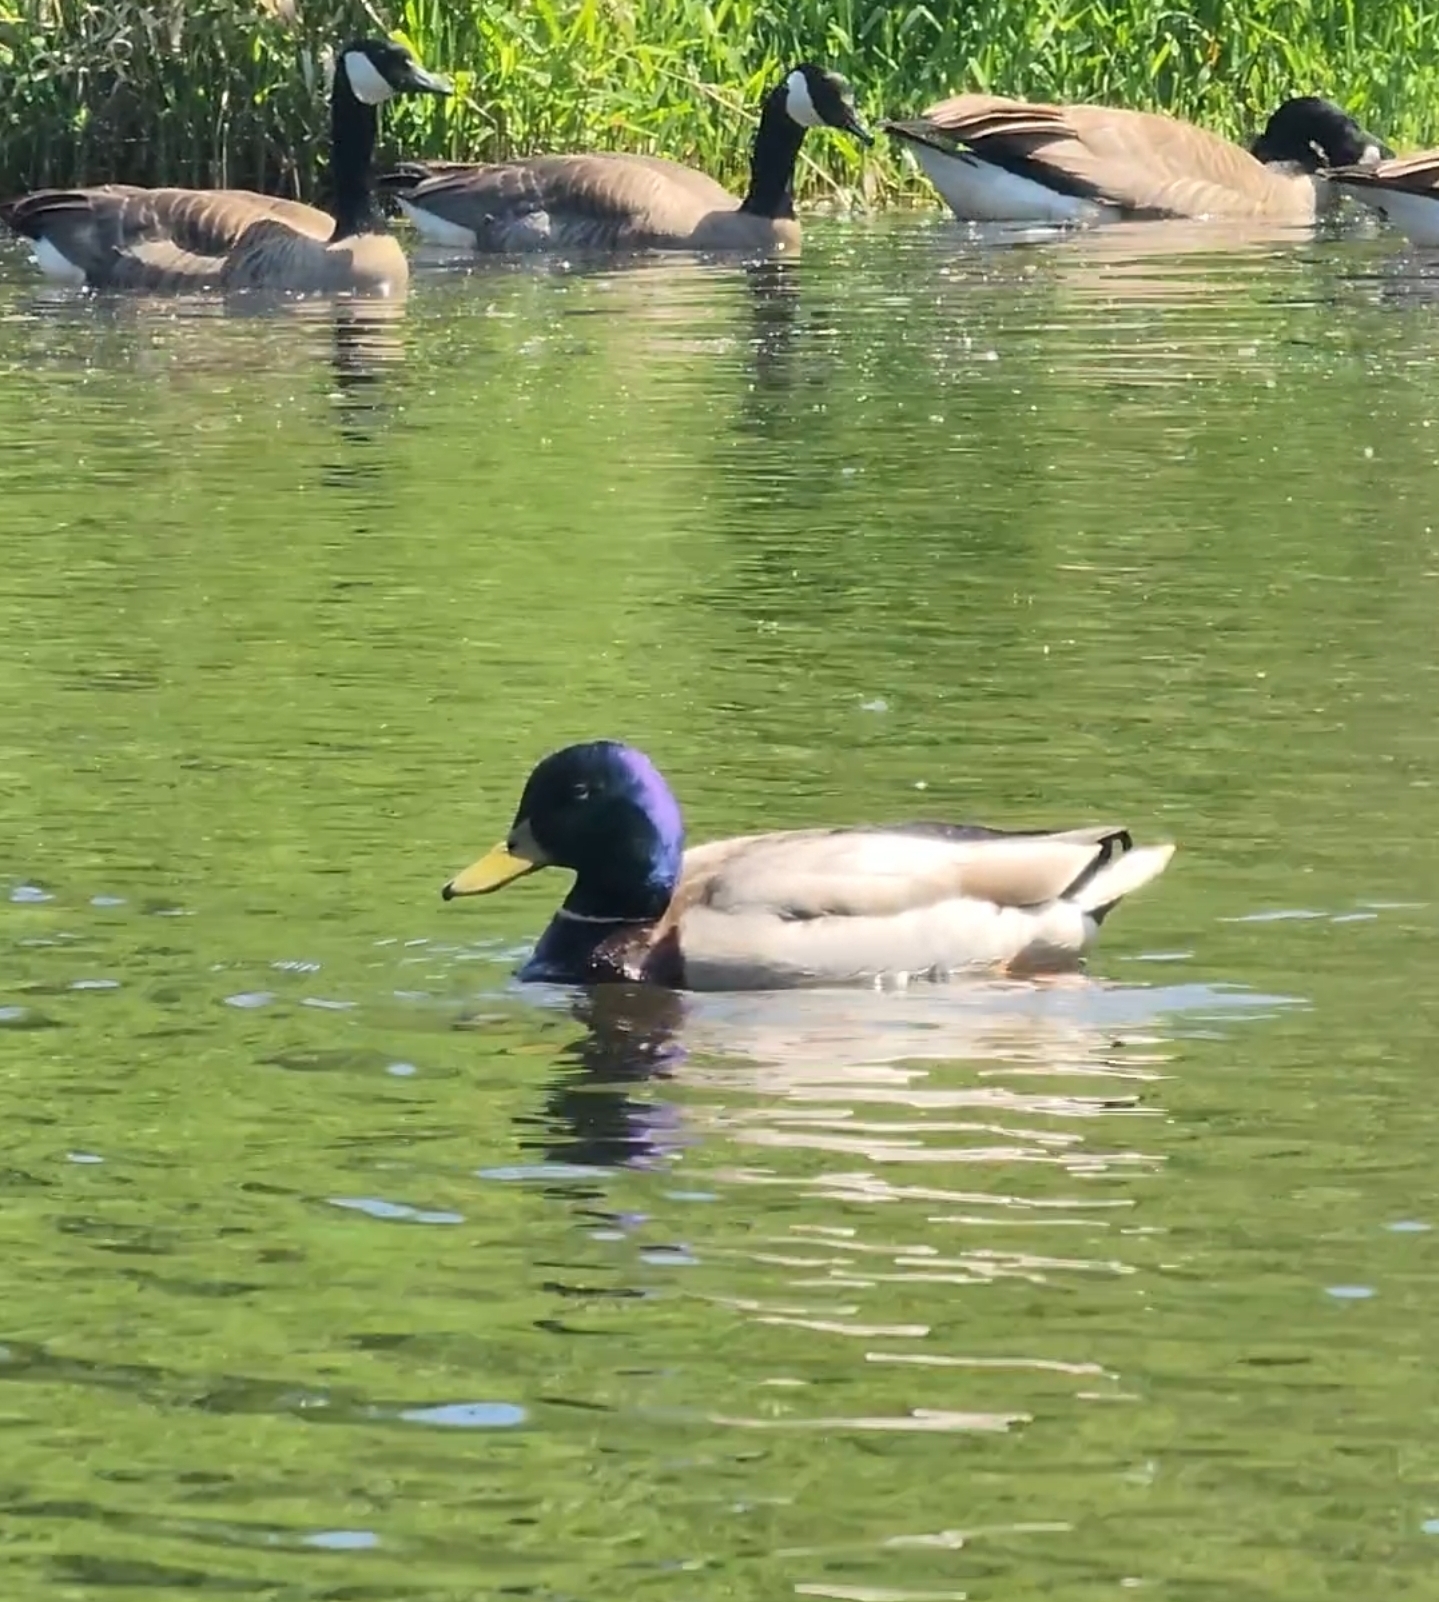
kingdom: Animalia
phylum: Chordata
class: Aves
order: Anseriformes
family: Anatidae
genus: Anas
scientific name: Anas platyrhynchos
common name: Mallard
